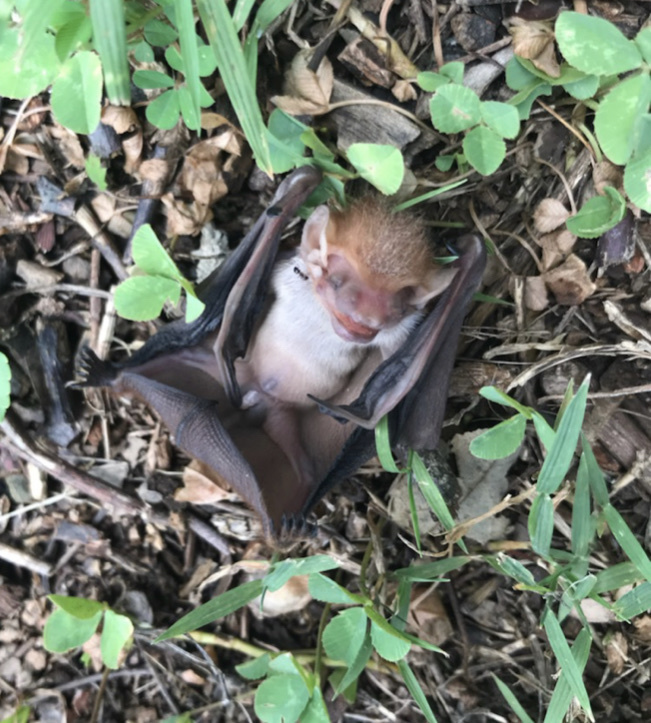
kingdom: Animalia
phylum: Chordata
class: Mammalia
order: Chiroptera
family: Vespertilionidae
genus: Lasiurus
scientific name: Lasiurus borealis
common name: Eastern red bat
